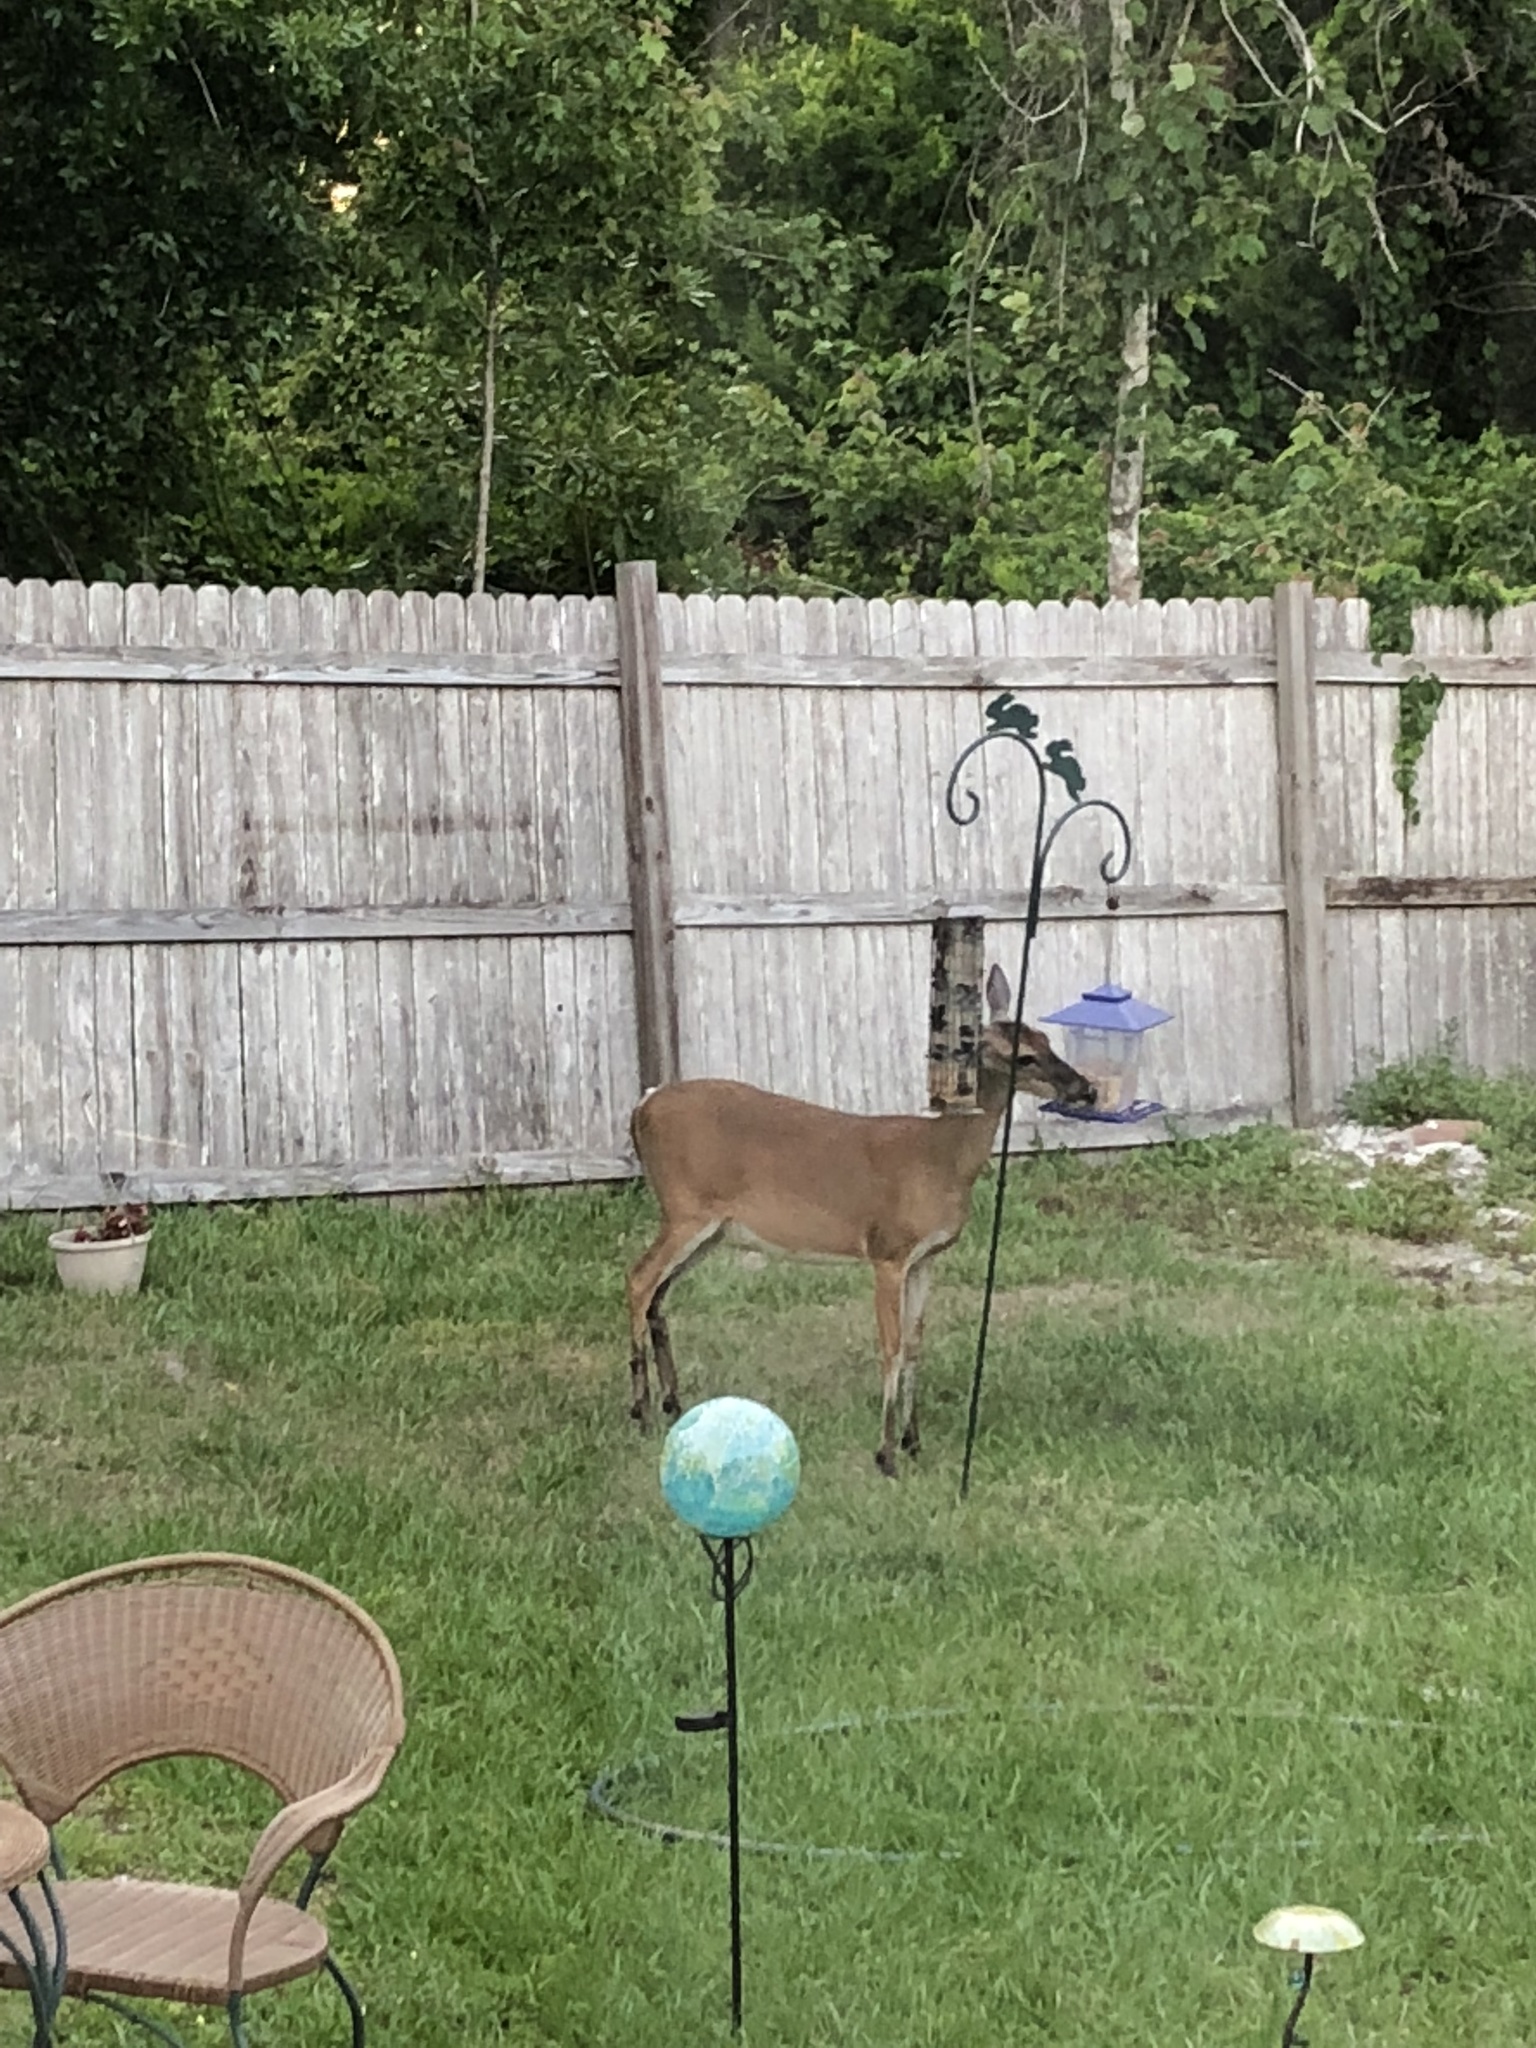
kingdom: Animalia
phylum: Chordata
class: Mammalia
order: Artiodactyla
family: Cervidae
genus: Odocoileus
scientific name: Odocoileus virginianus
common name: White-tailed deer
